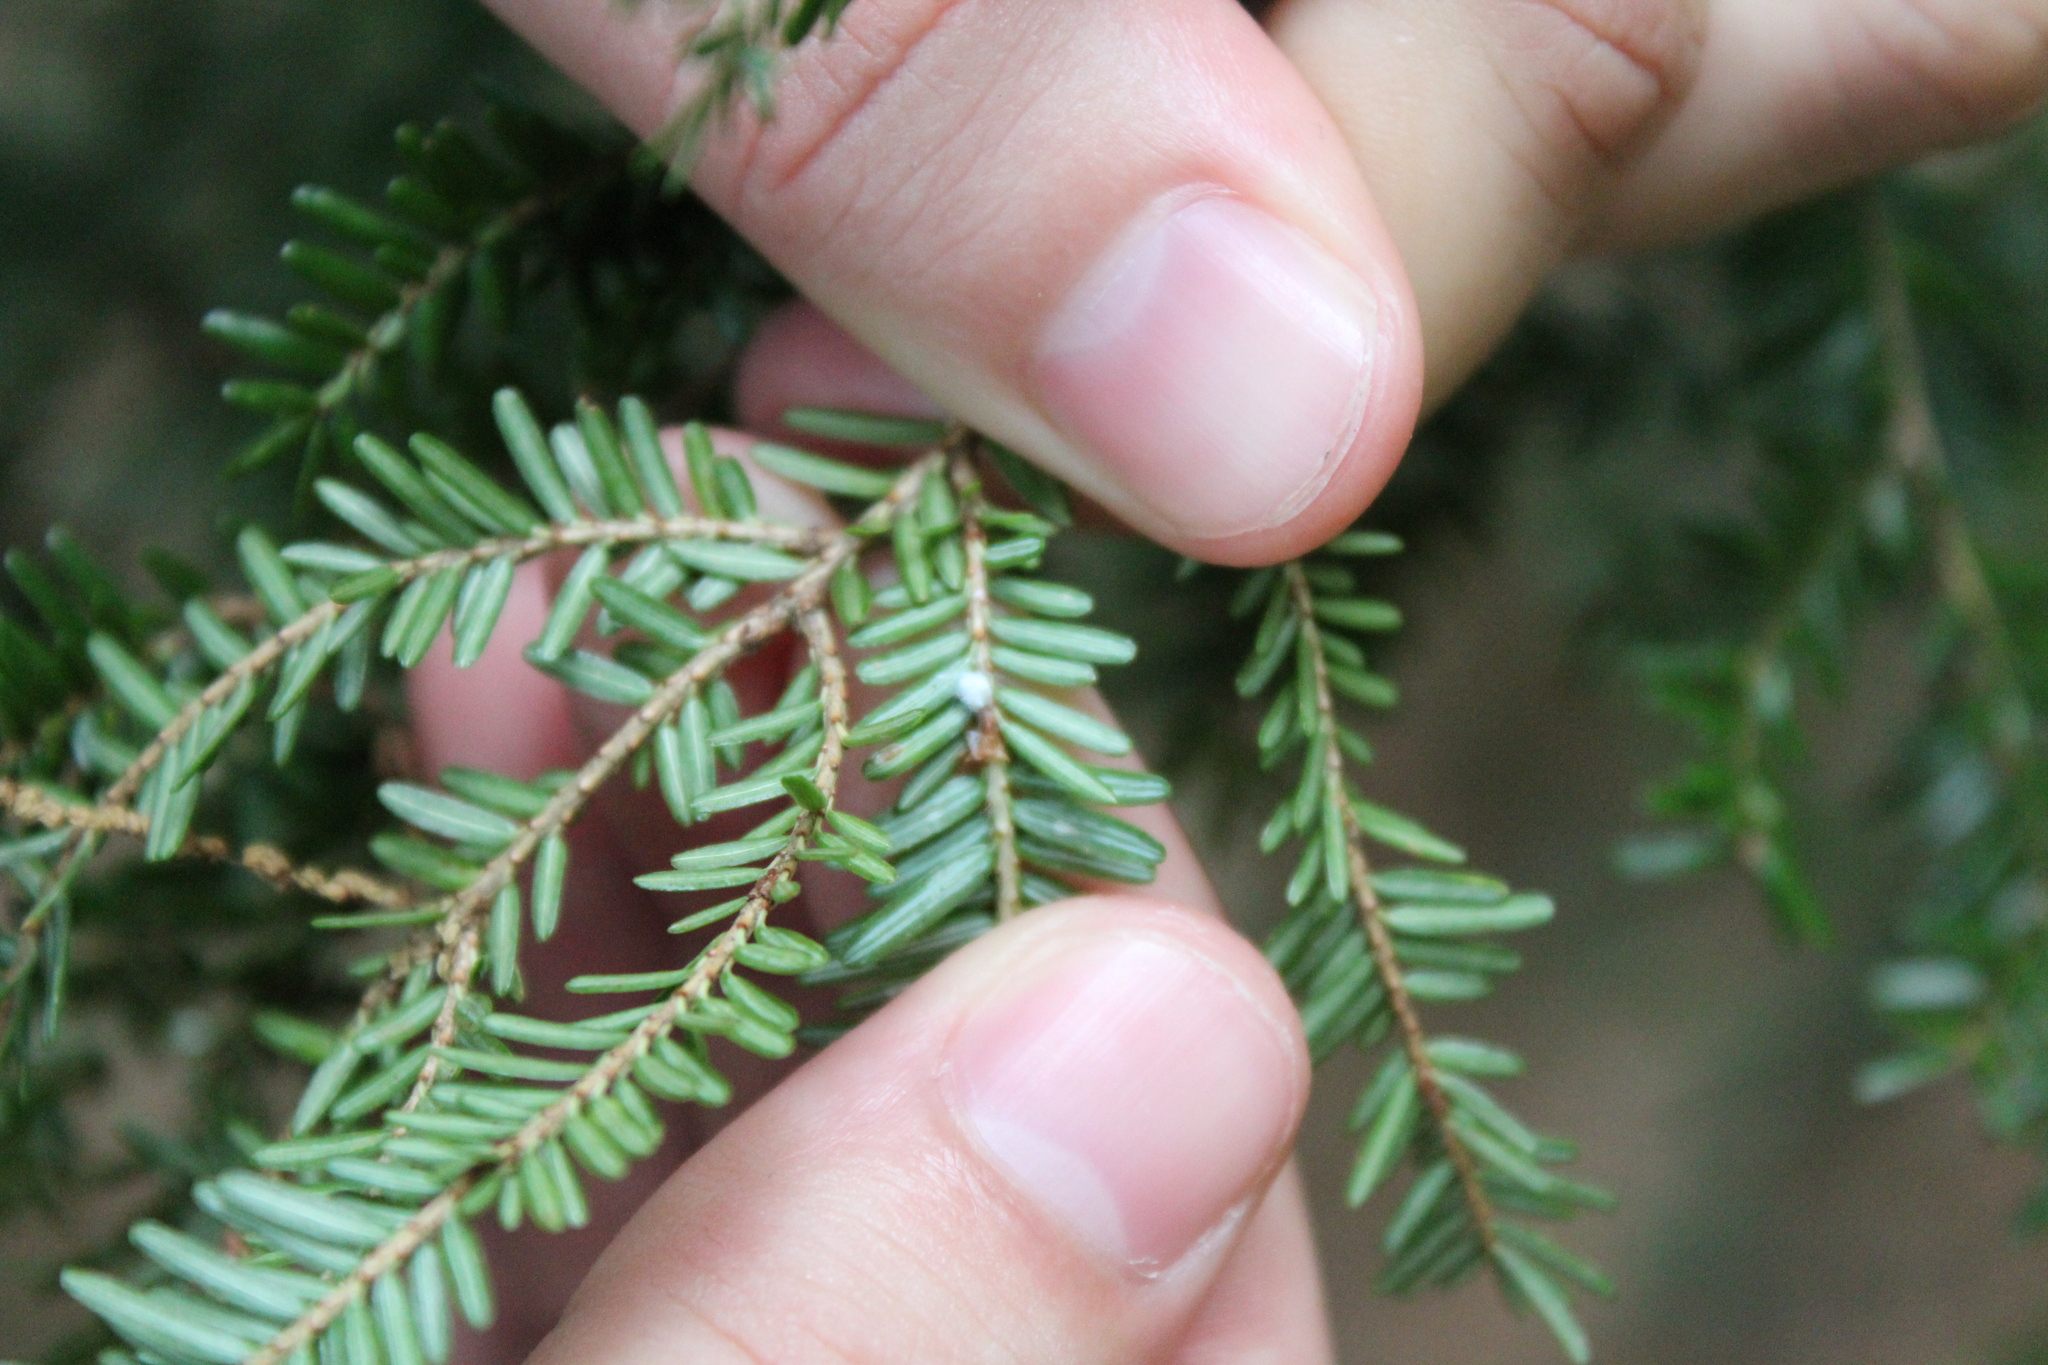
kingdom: Plantae
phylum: Tracheophyta
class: Pinopsida
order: Pinales
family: Pinaceae
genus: Tsuga
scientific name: Tsuga canadensis
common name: Eastern hemlock
